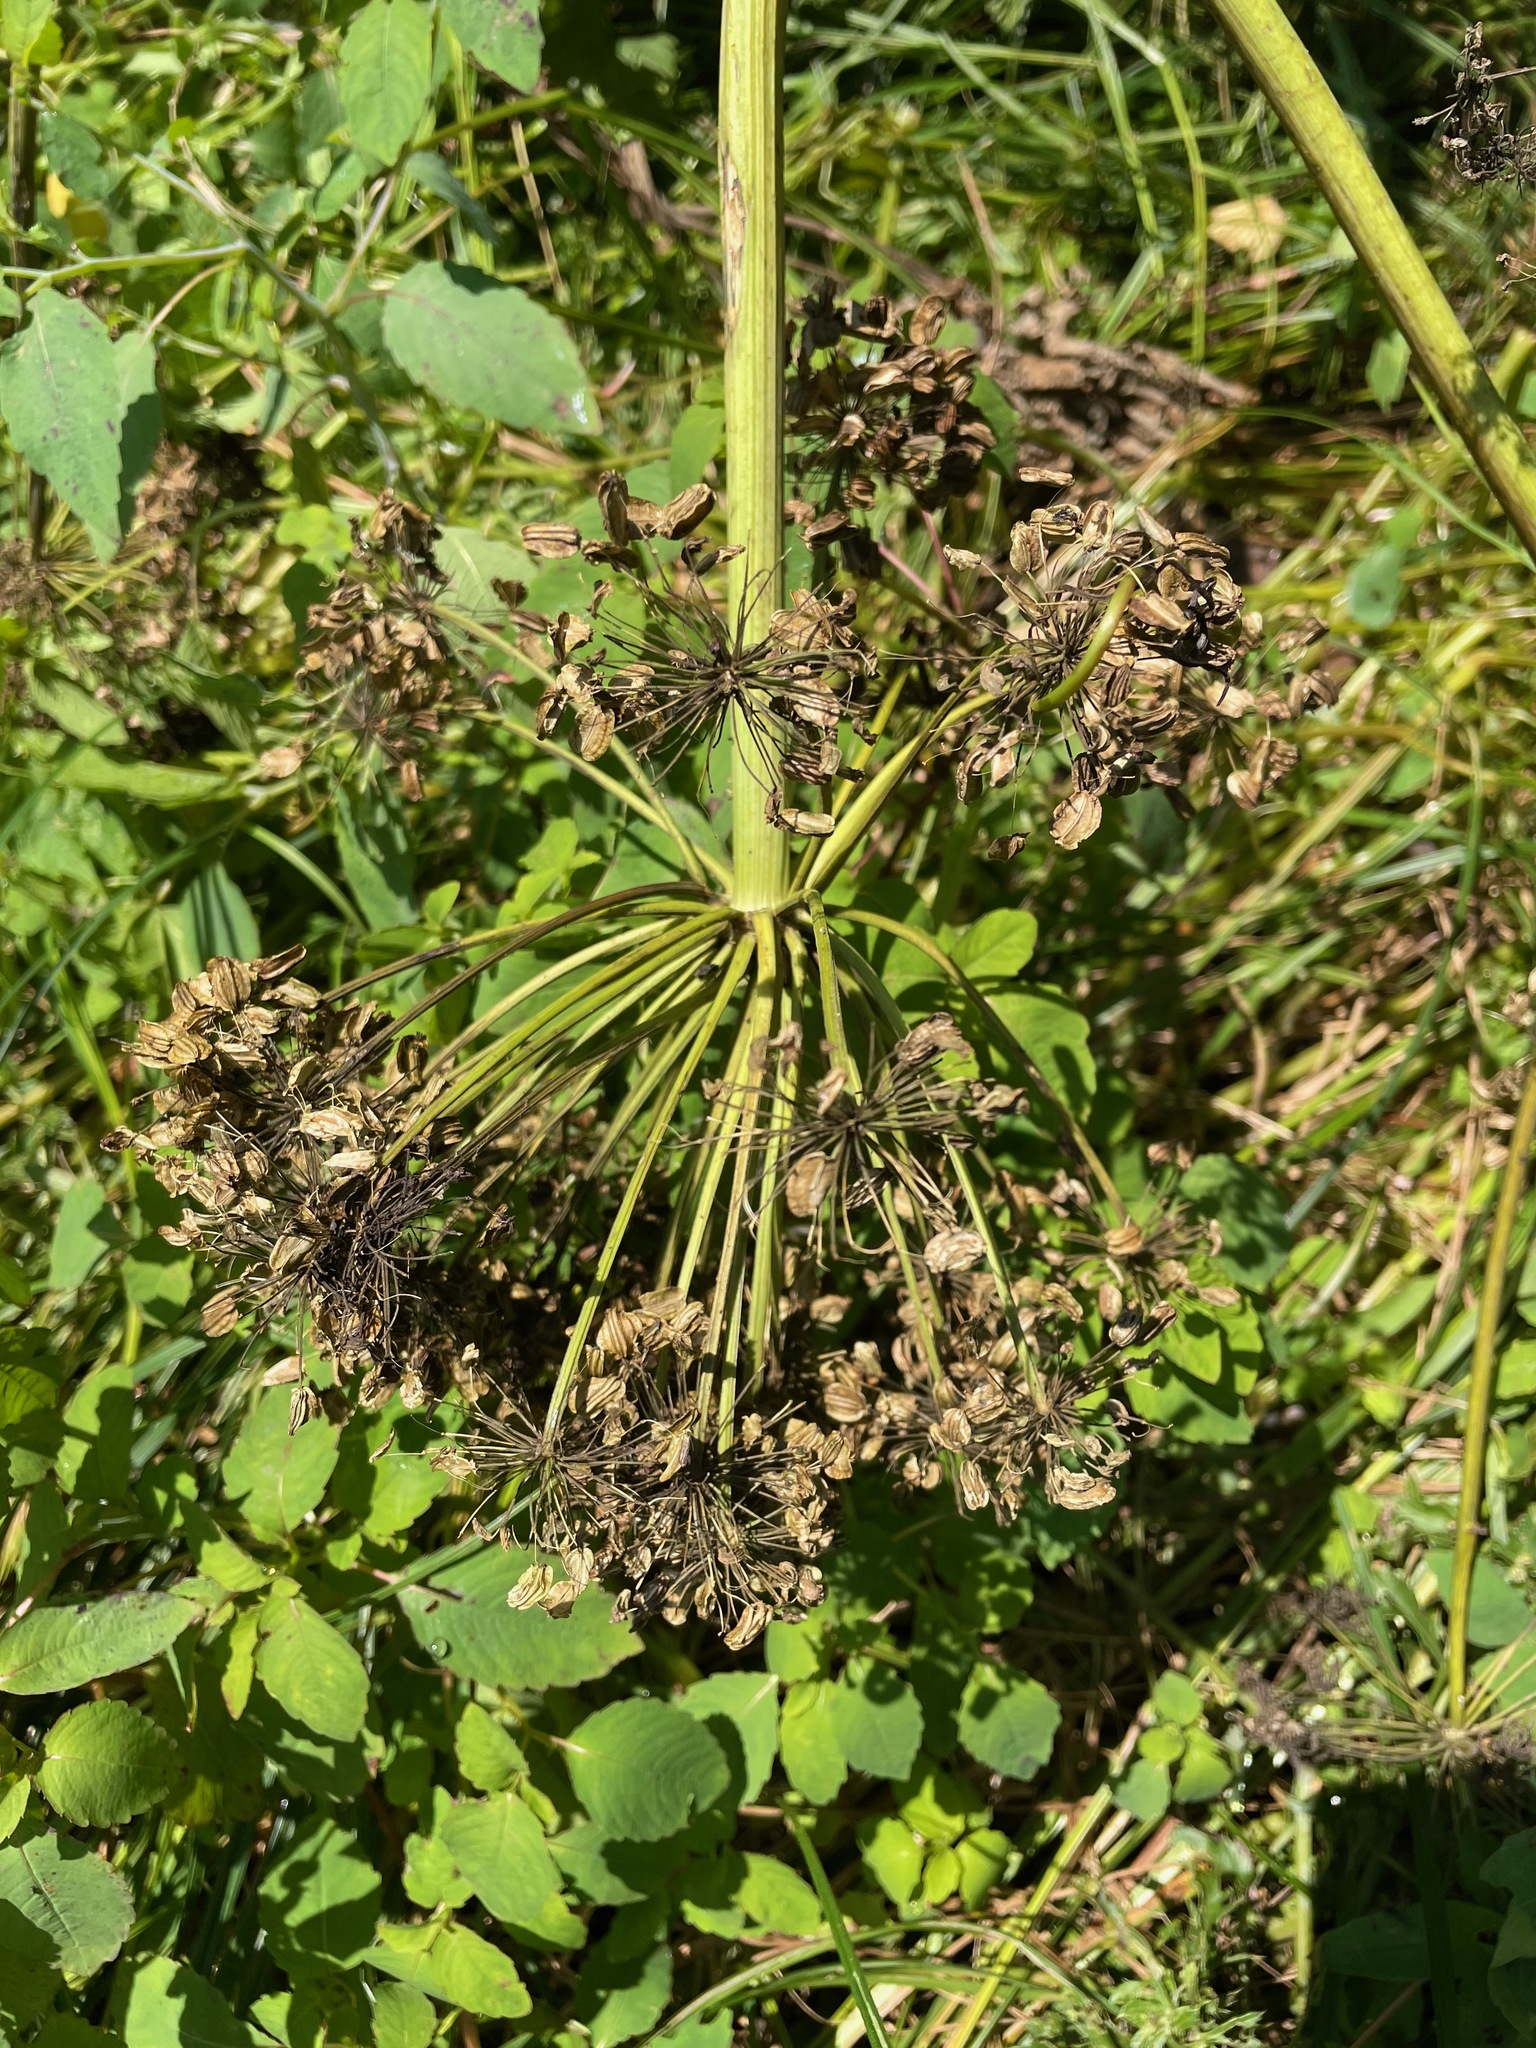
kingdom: Plantae
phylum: Tracheophyta
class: Magnoliopsida
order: Apiales
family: Apiaceae
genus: Angelica
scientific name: Angelica atropurpurea
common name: Great angelica
